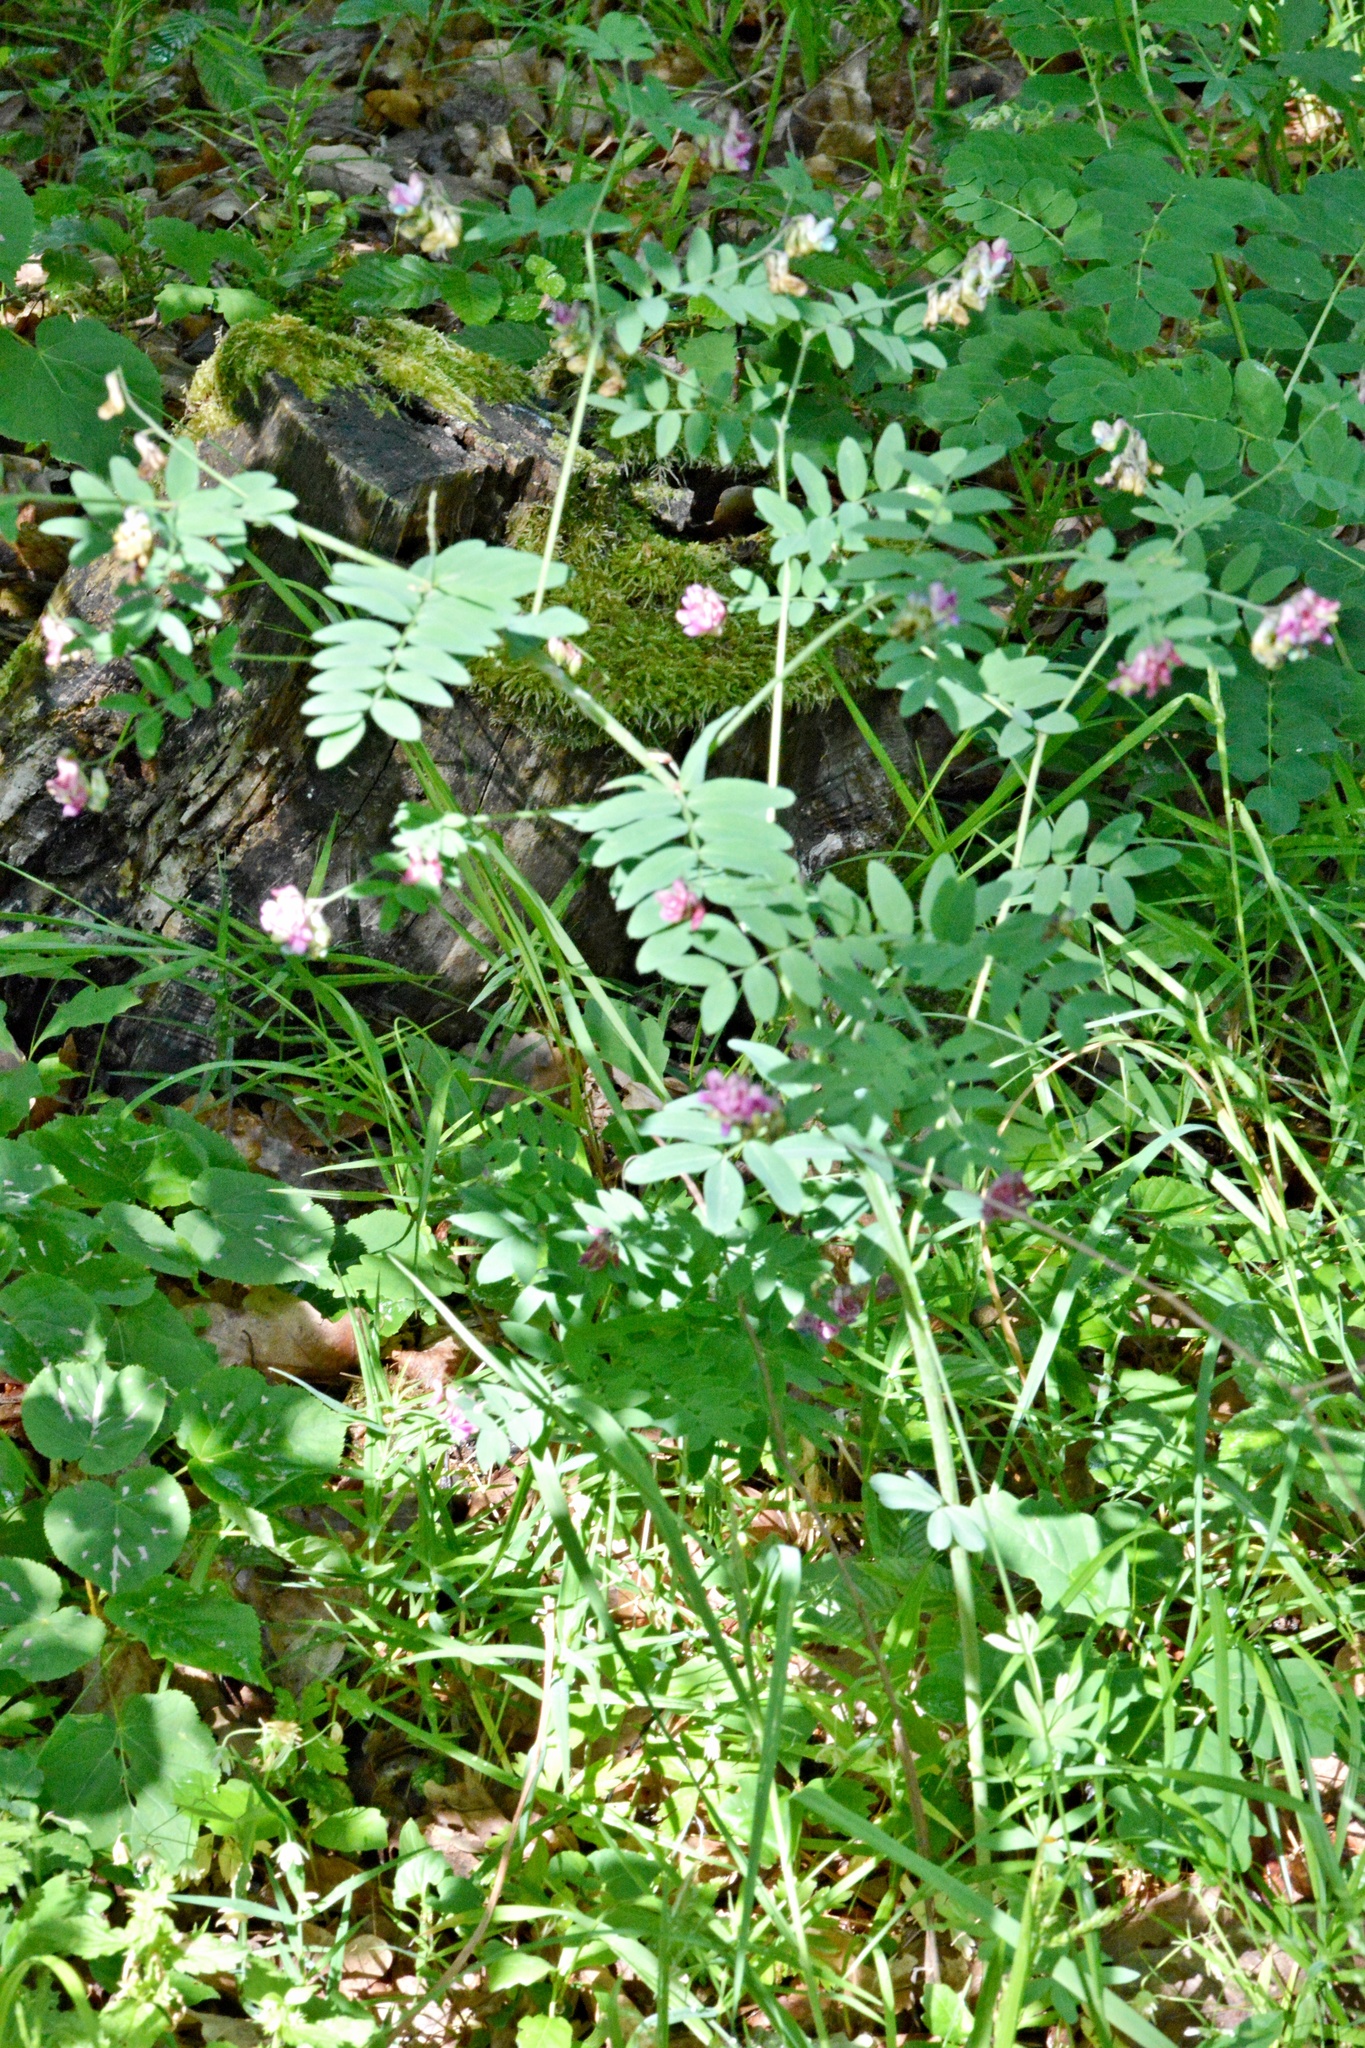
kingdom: Plantae
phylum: Tracheophyta
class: Magnoliopsida
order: Fabales
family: Fabaceae
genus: Lathyrus
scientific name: Lathyrus niger
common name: Black pea
